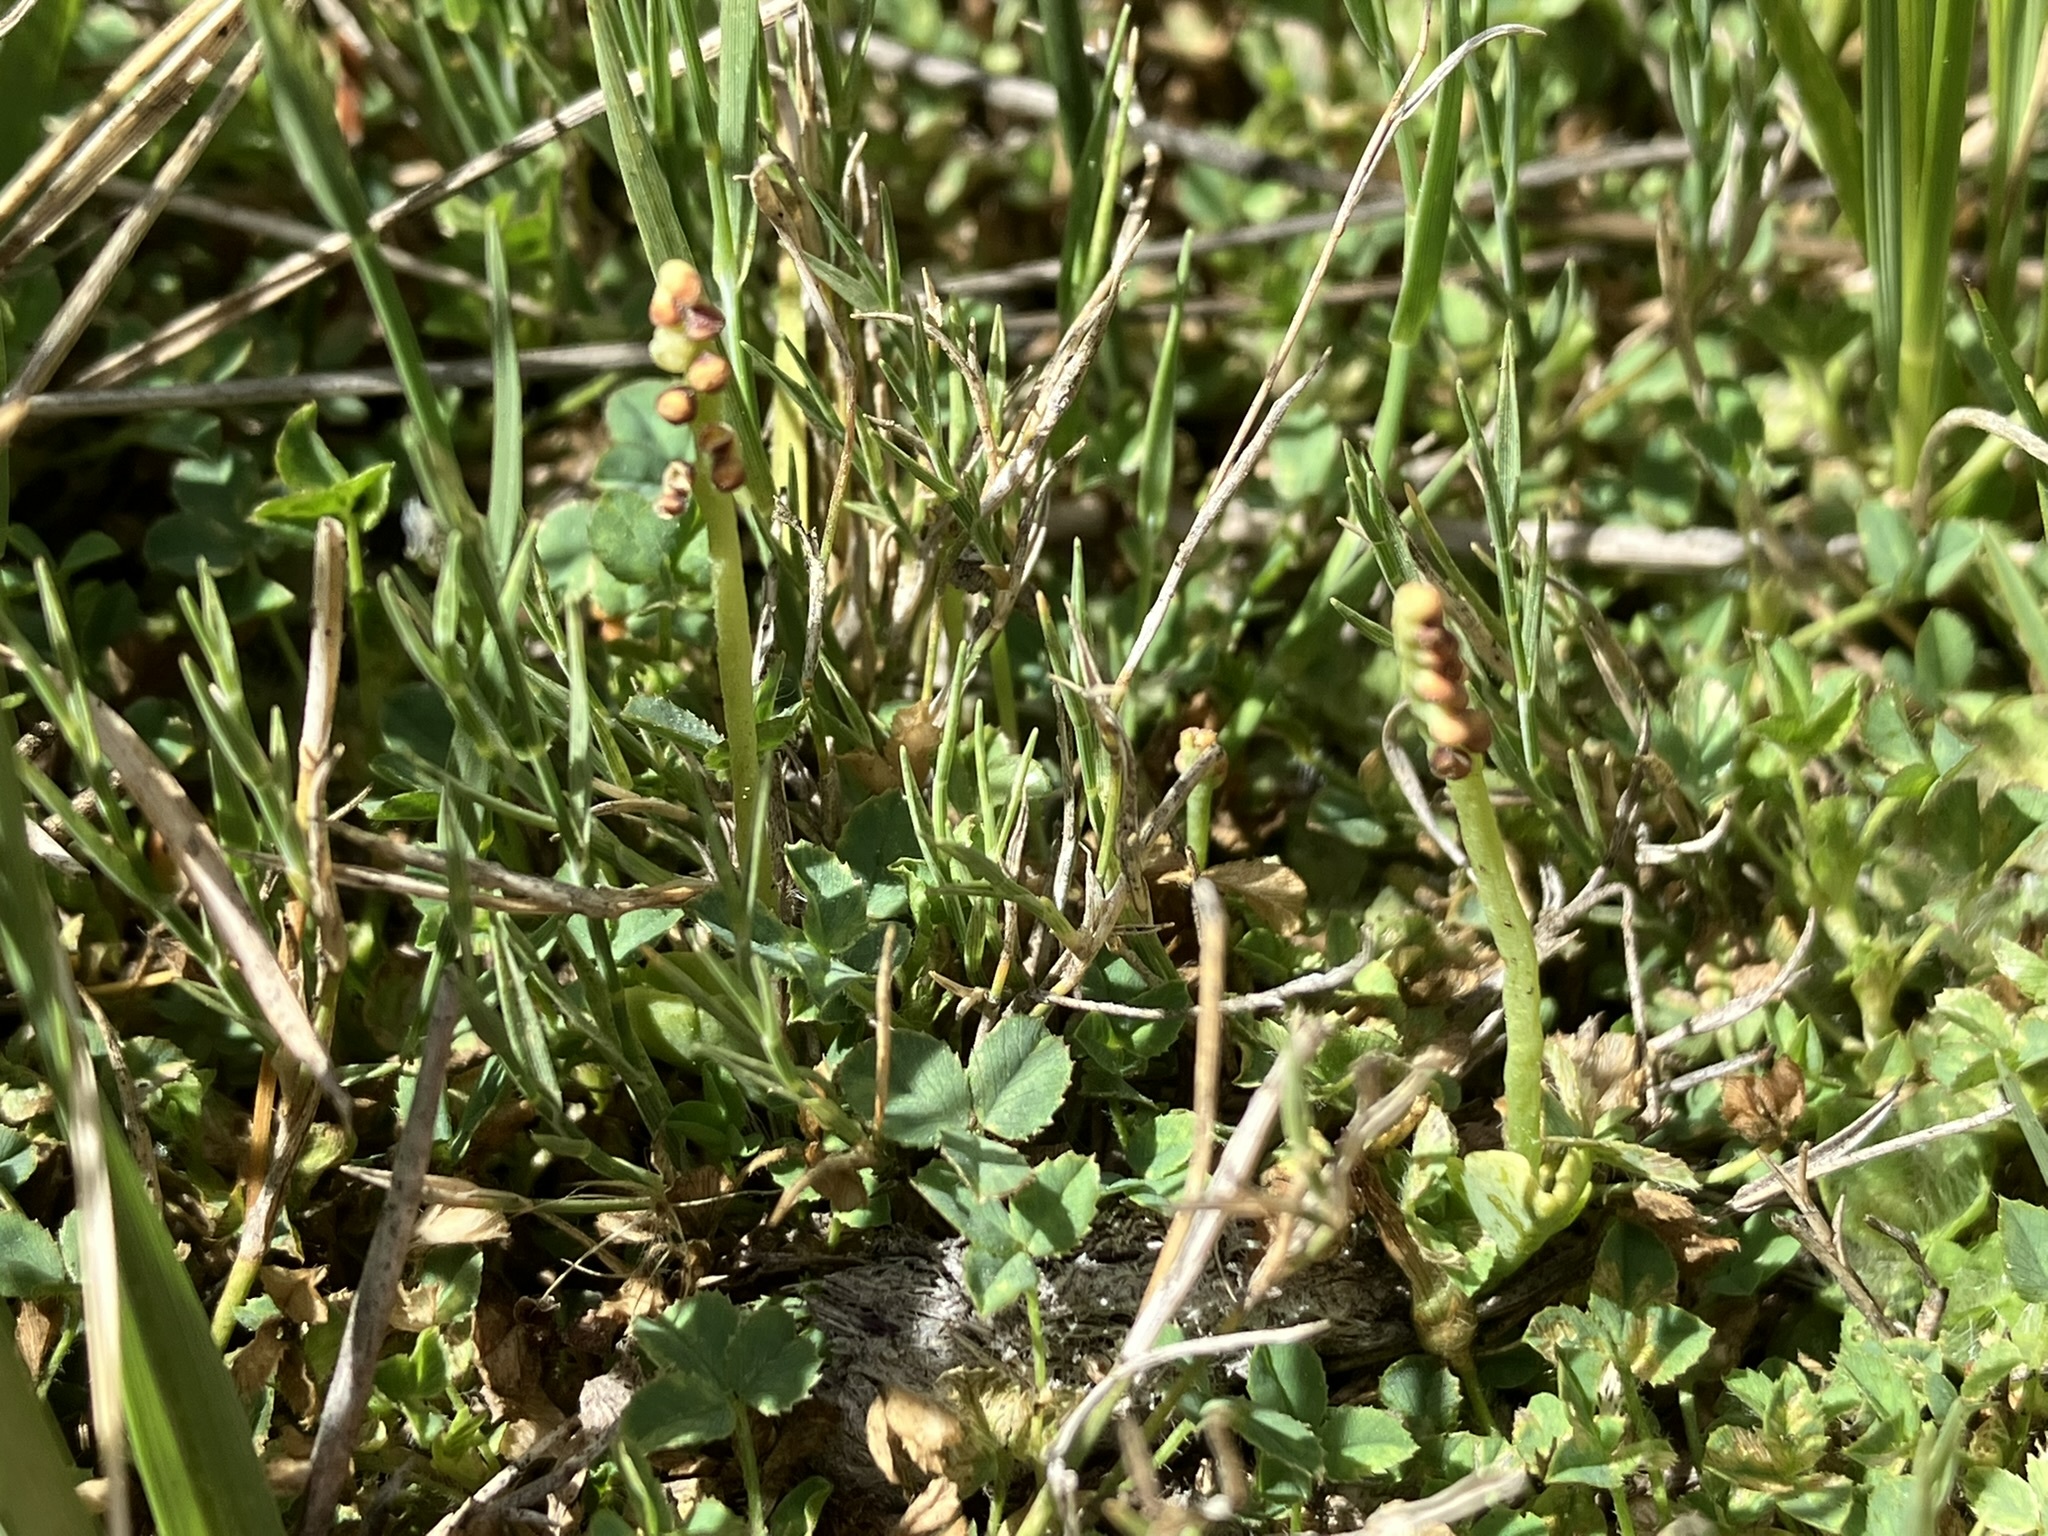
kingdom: Plantae
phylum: Tracheophyta
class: Polypodiopsida
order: Ophioglossales
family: Ophioglossaceae
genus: Botrychium
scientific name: Botrychium simplex
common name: Least moonwort
